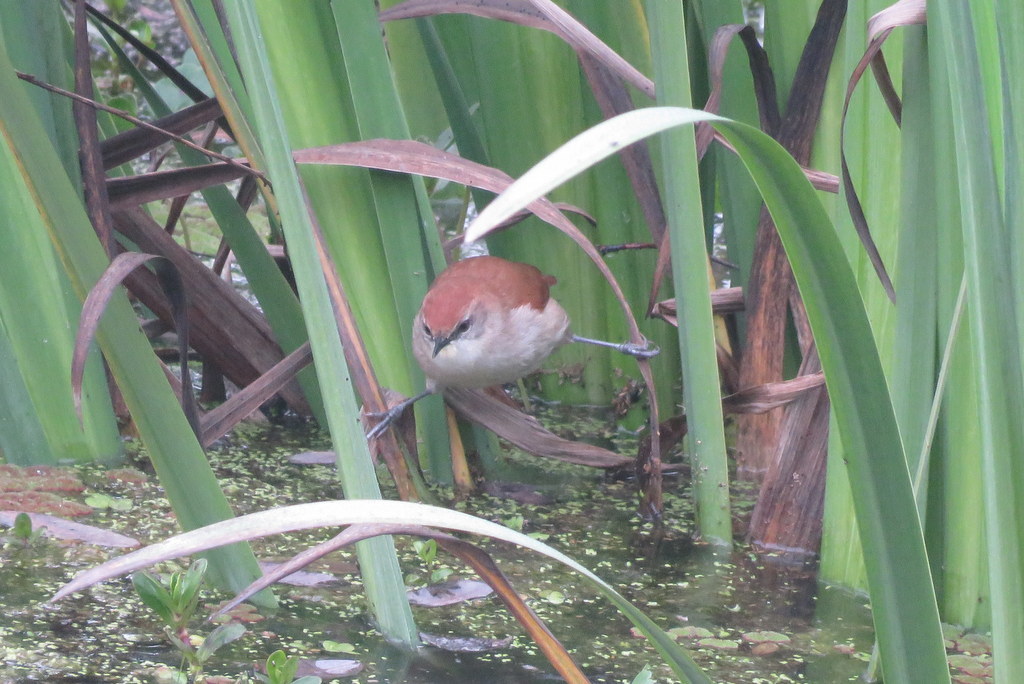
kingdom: Animalia
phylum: Chordata
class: Aves
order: Passeriformes
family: Furnariidae
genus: Certhiaxis
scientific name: Certhiaxis cinnamomeus
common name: Yellow-chinned spinetail
